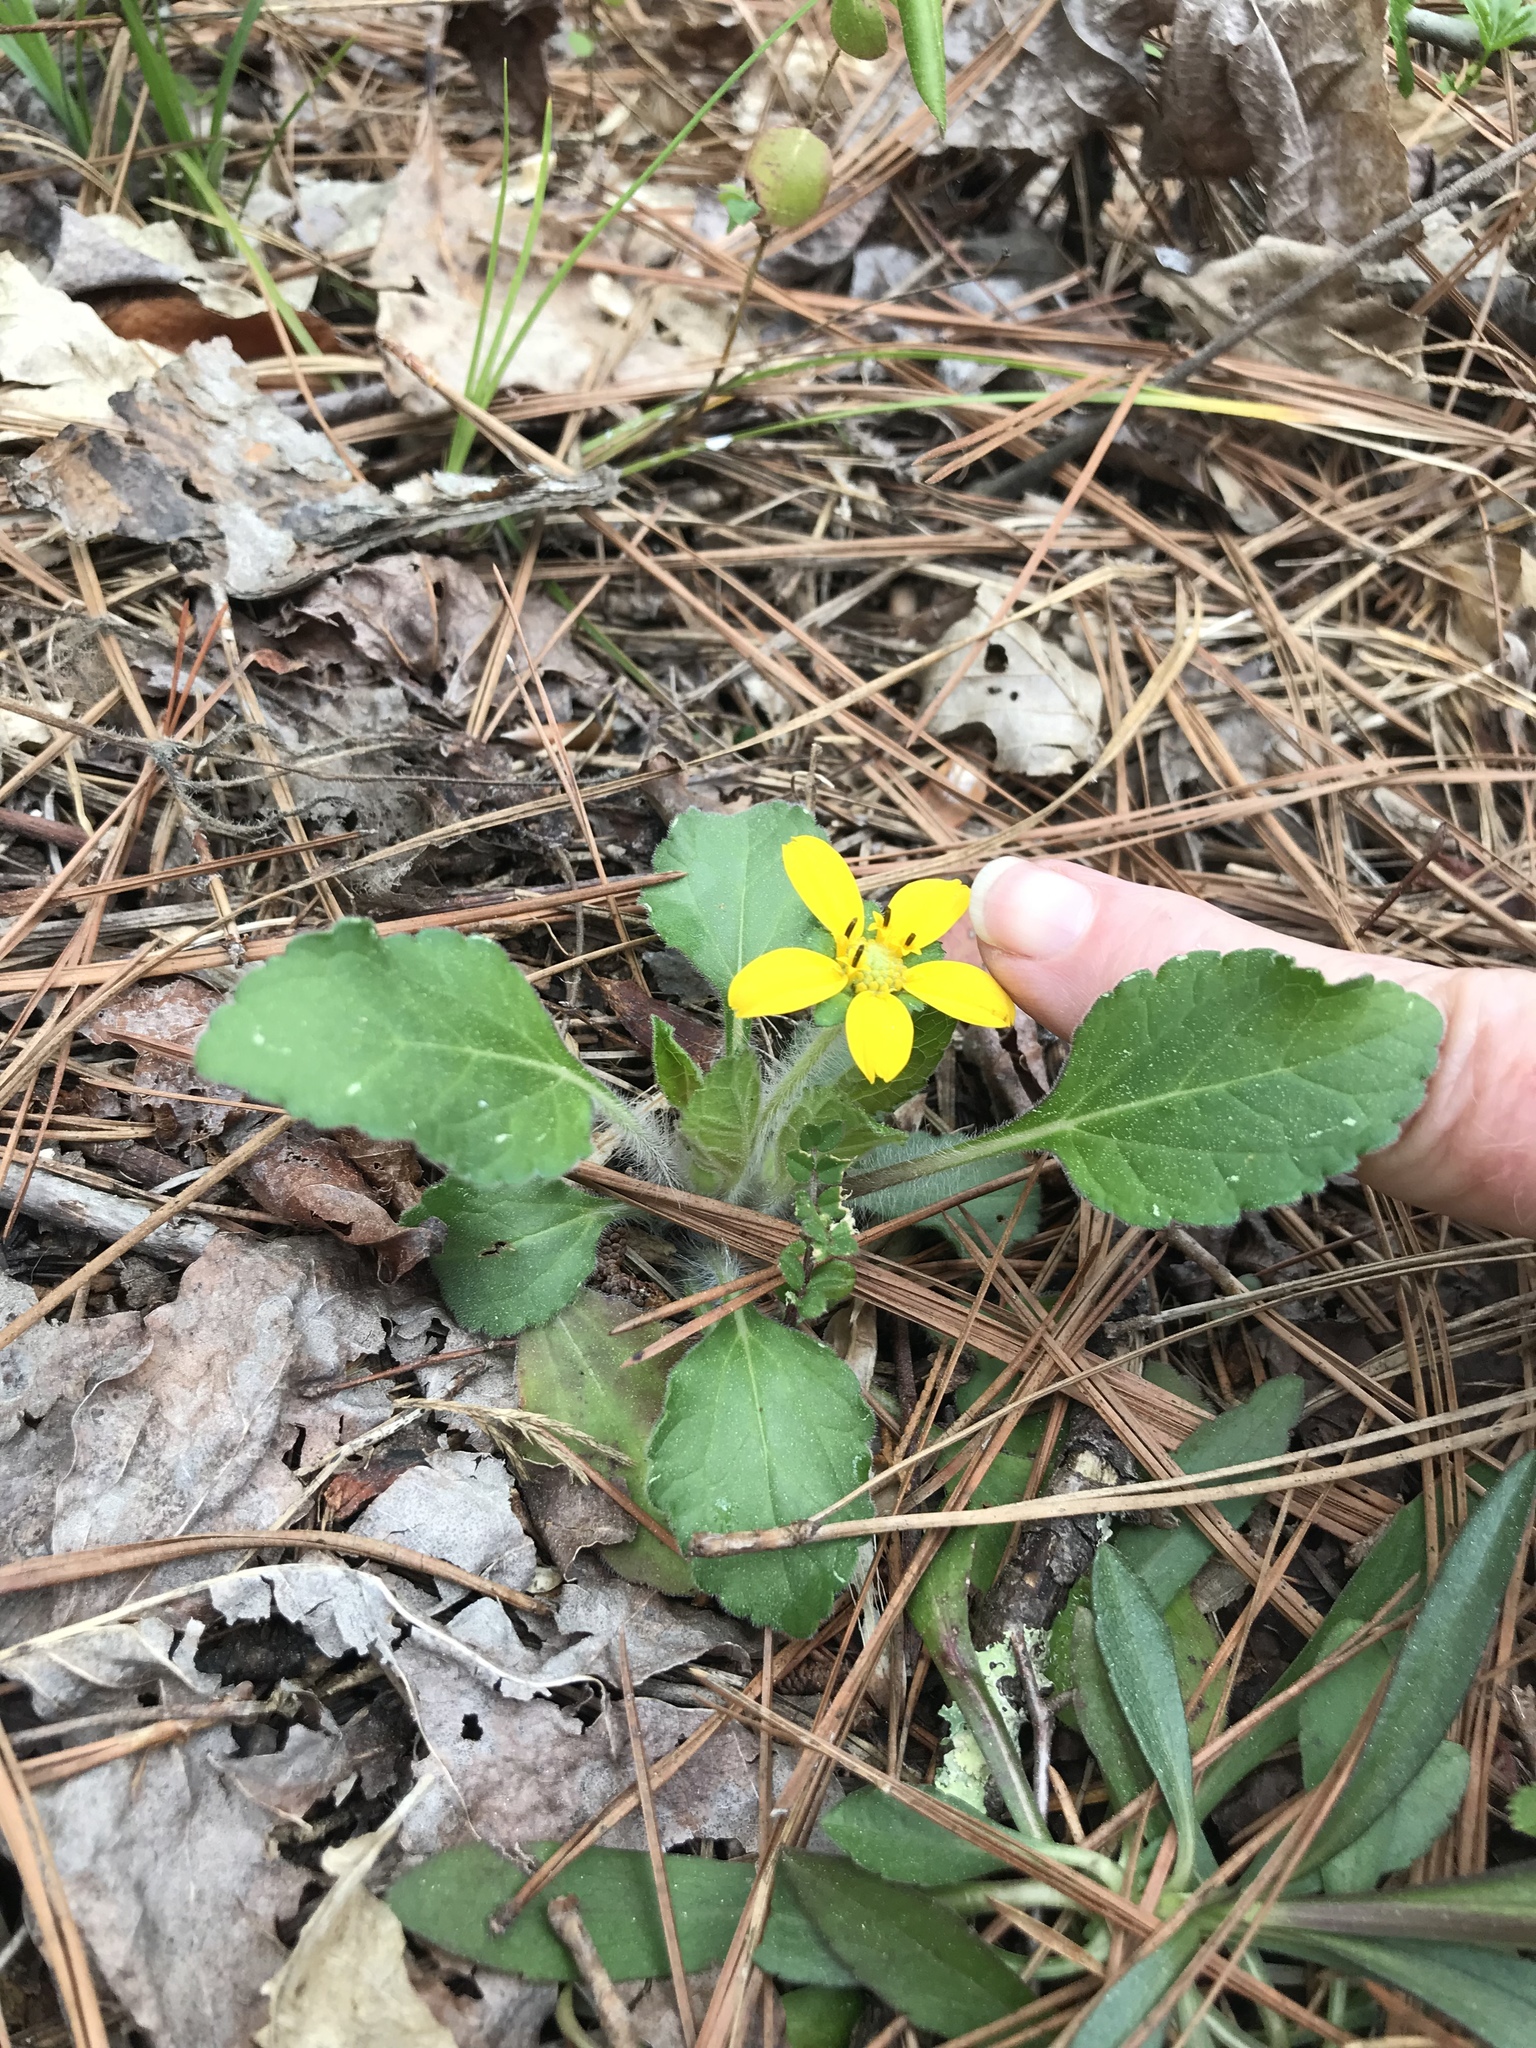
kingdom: Plantae
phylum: Tracheophyta
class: Magnoliopsida
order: Asterales
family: Asteraceae
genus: Chrysogonum
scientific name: Chrysogonum virginianum
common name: Golden-knee
